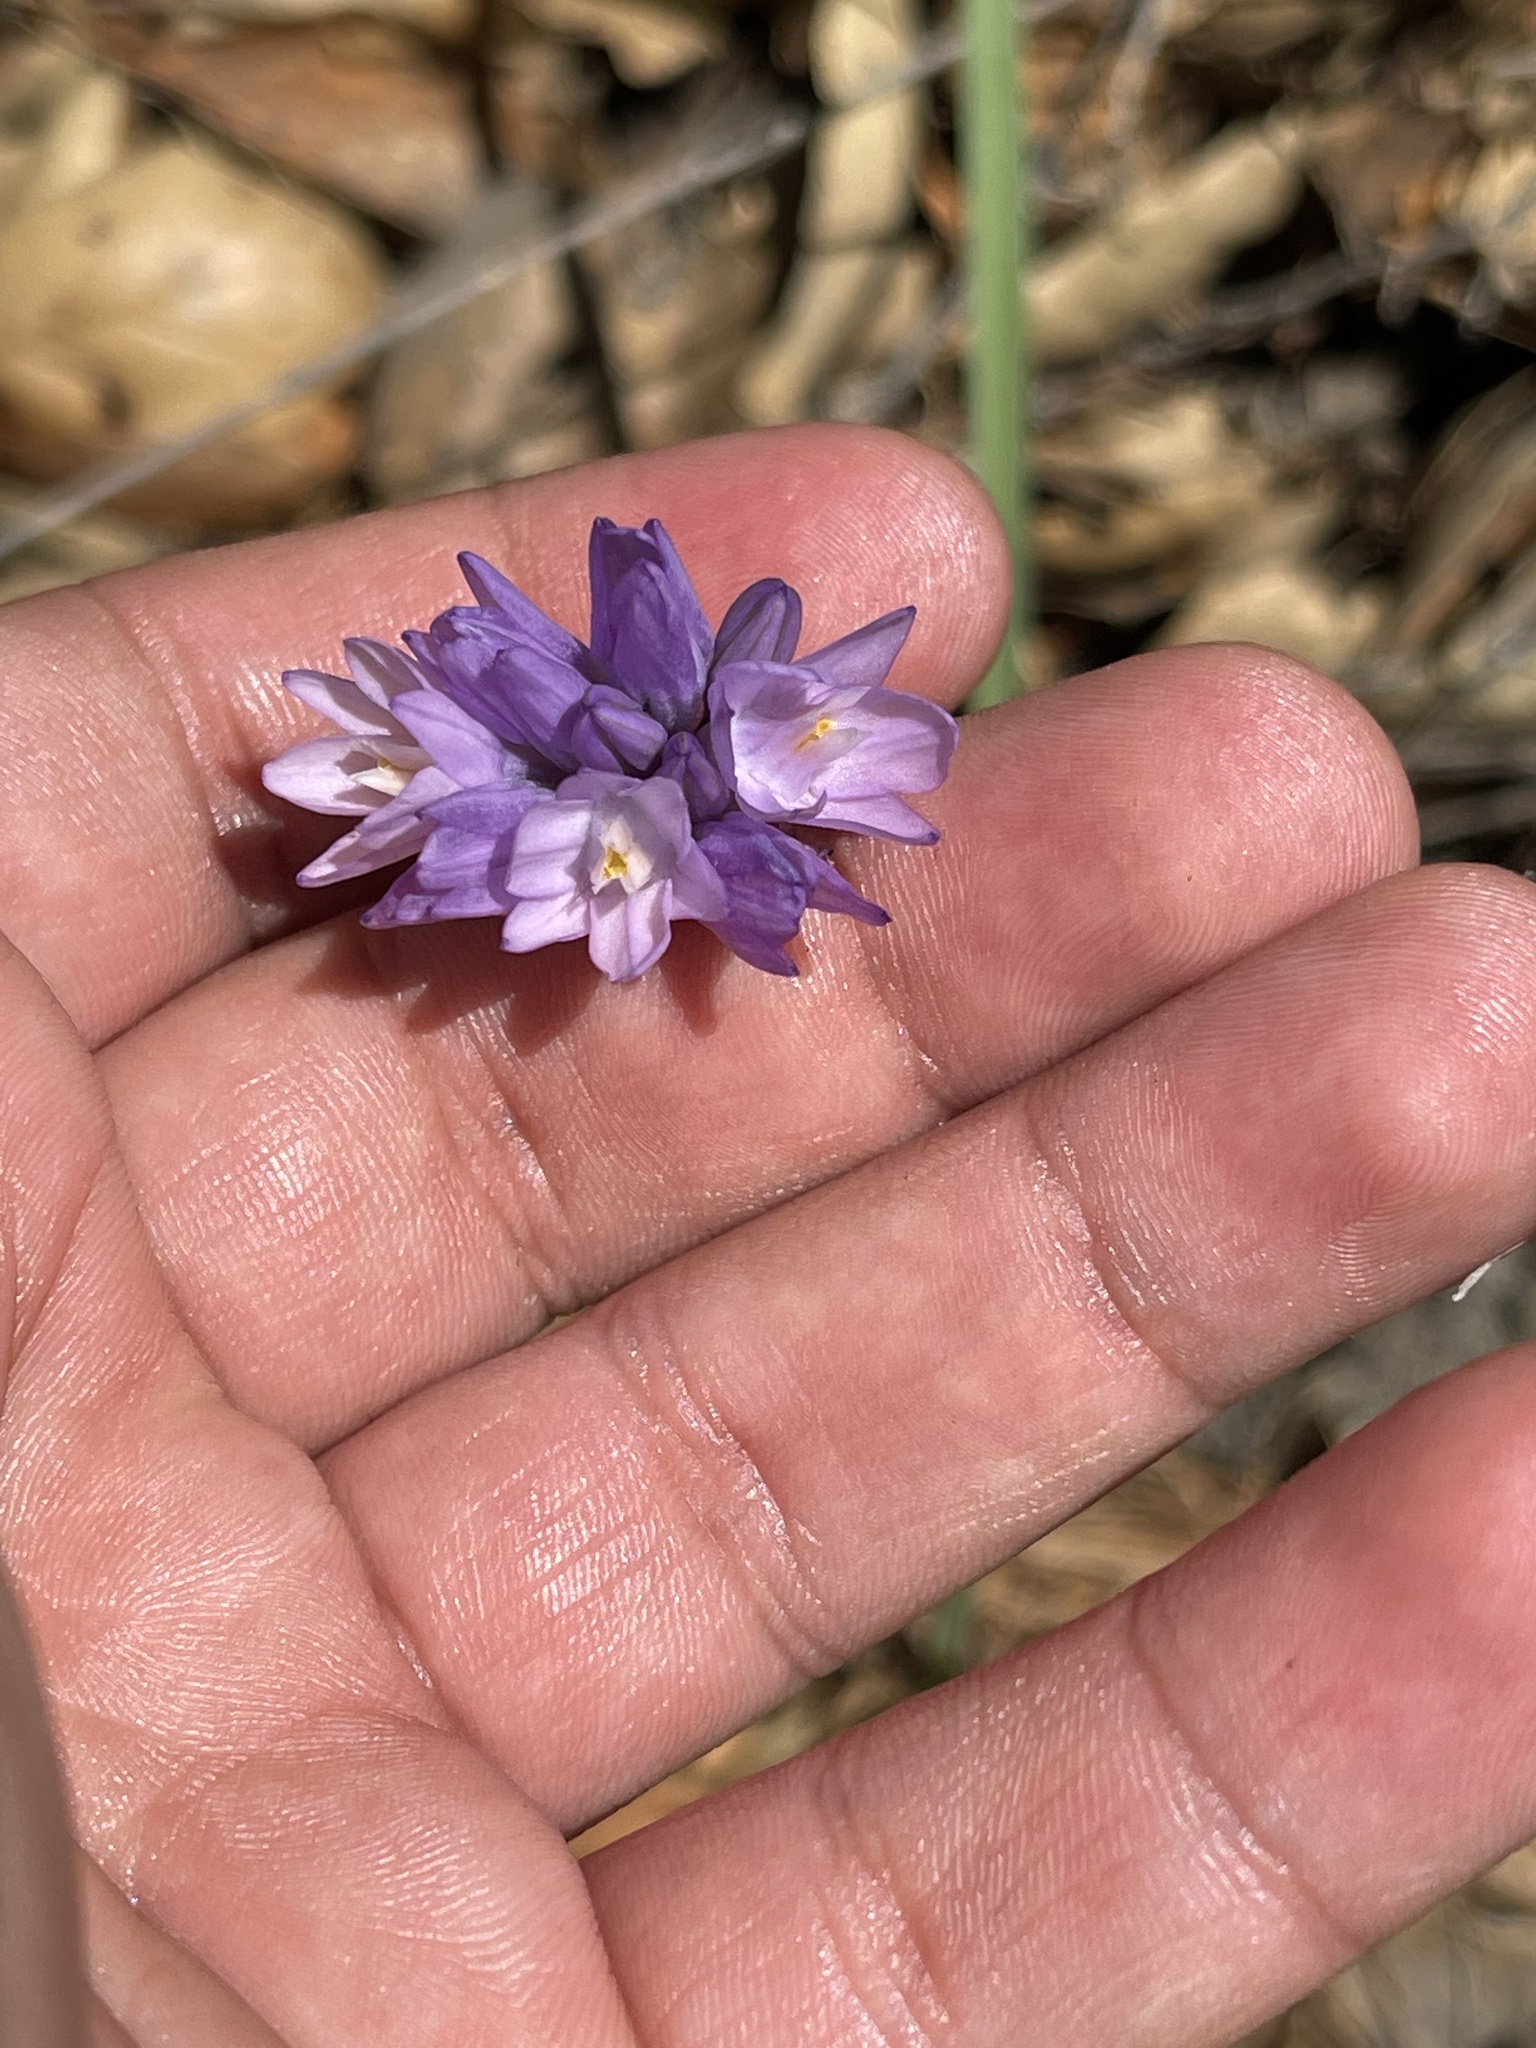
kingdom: Plantae
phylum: Tracheophyta
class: Liliopsida
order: Asparagales
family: Asparagaceae
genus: Dipterostemon
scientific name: Dipterostemon capitatus
